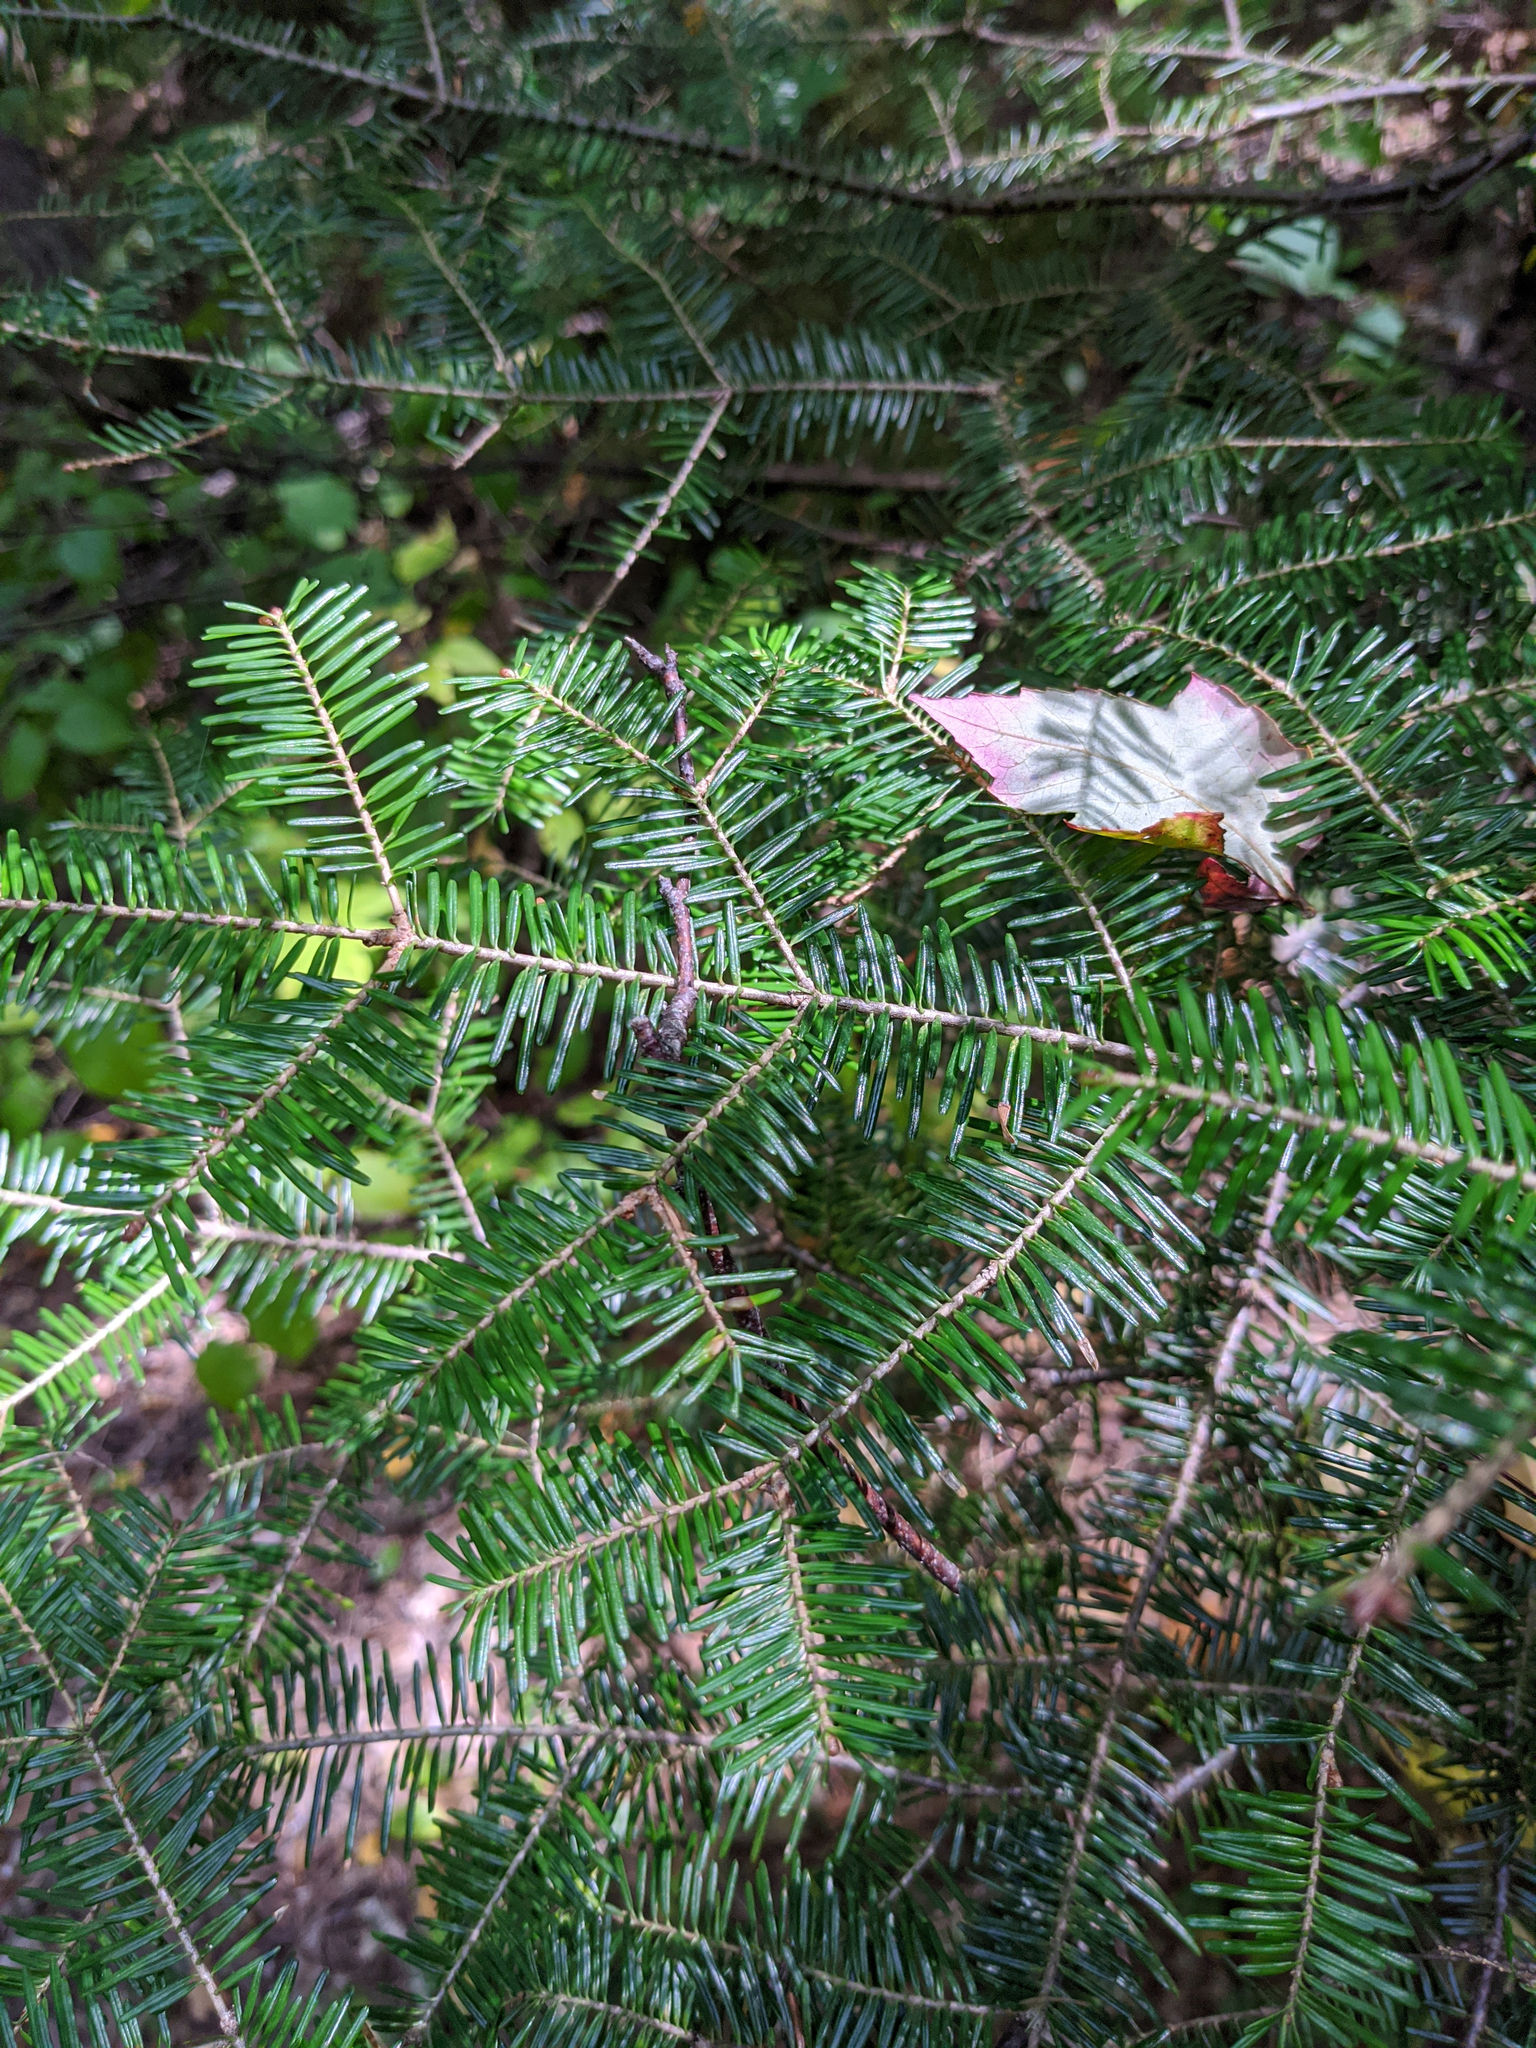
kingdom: Plantae
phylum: Tracheophyta
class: Pinopsida
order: Pinales
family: Pinaceae
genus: Abies
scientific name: Abies balsamea
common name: Balsam fir
